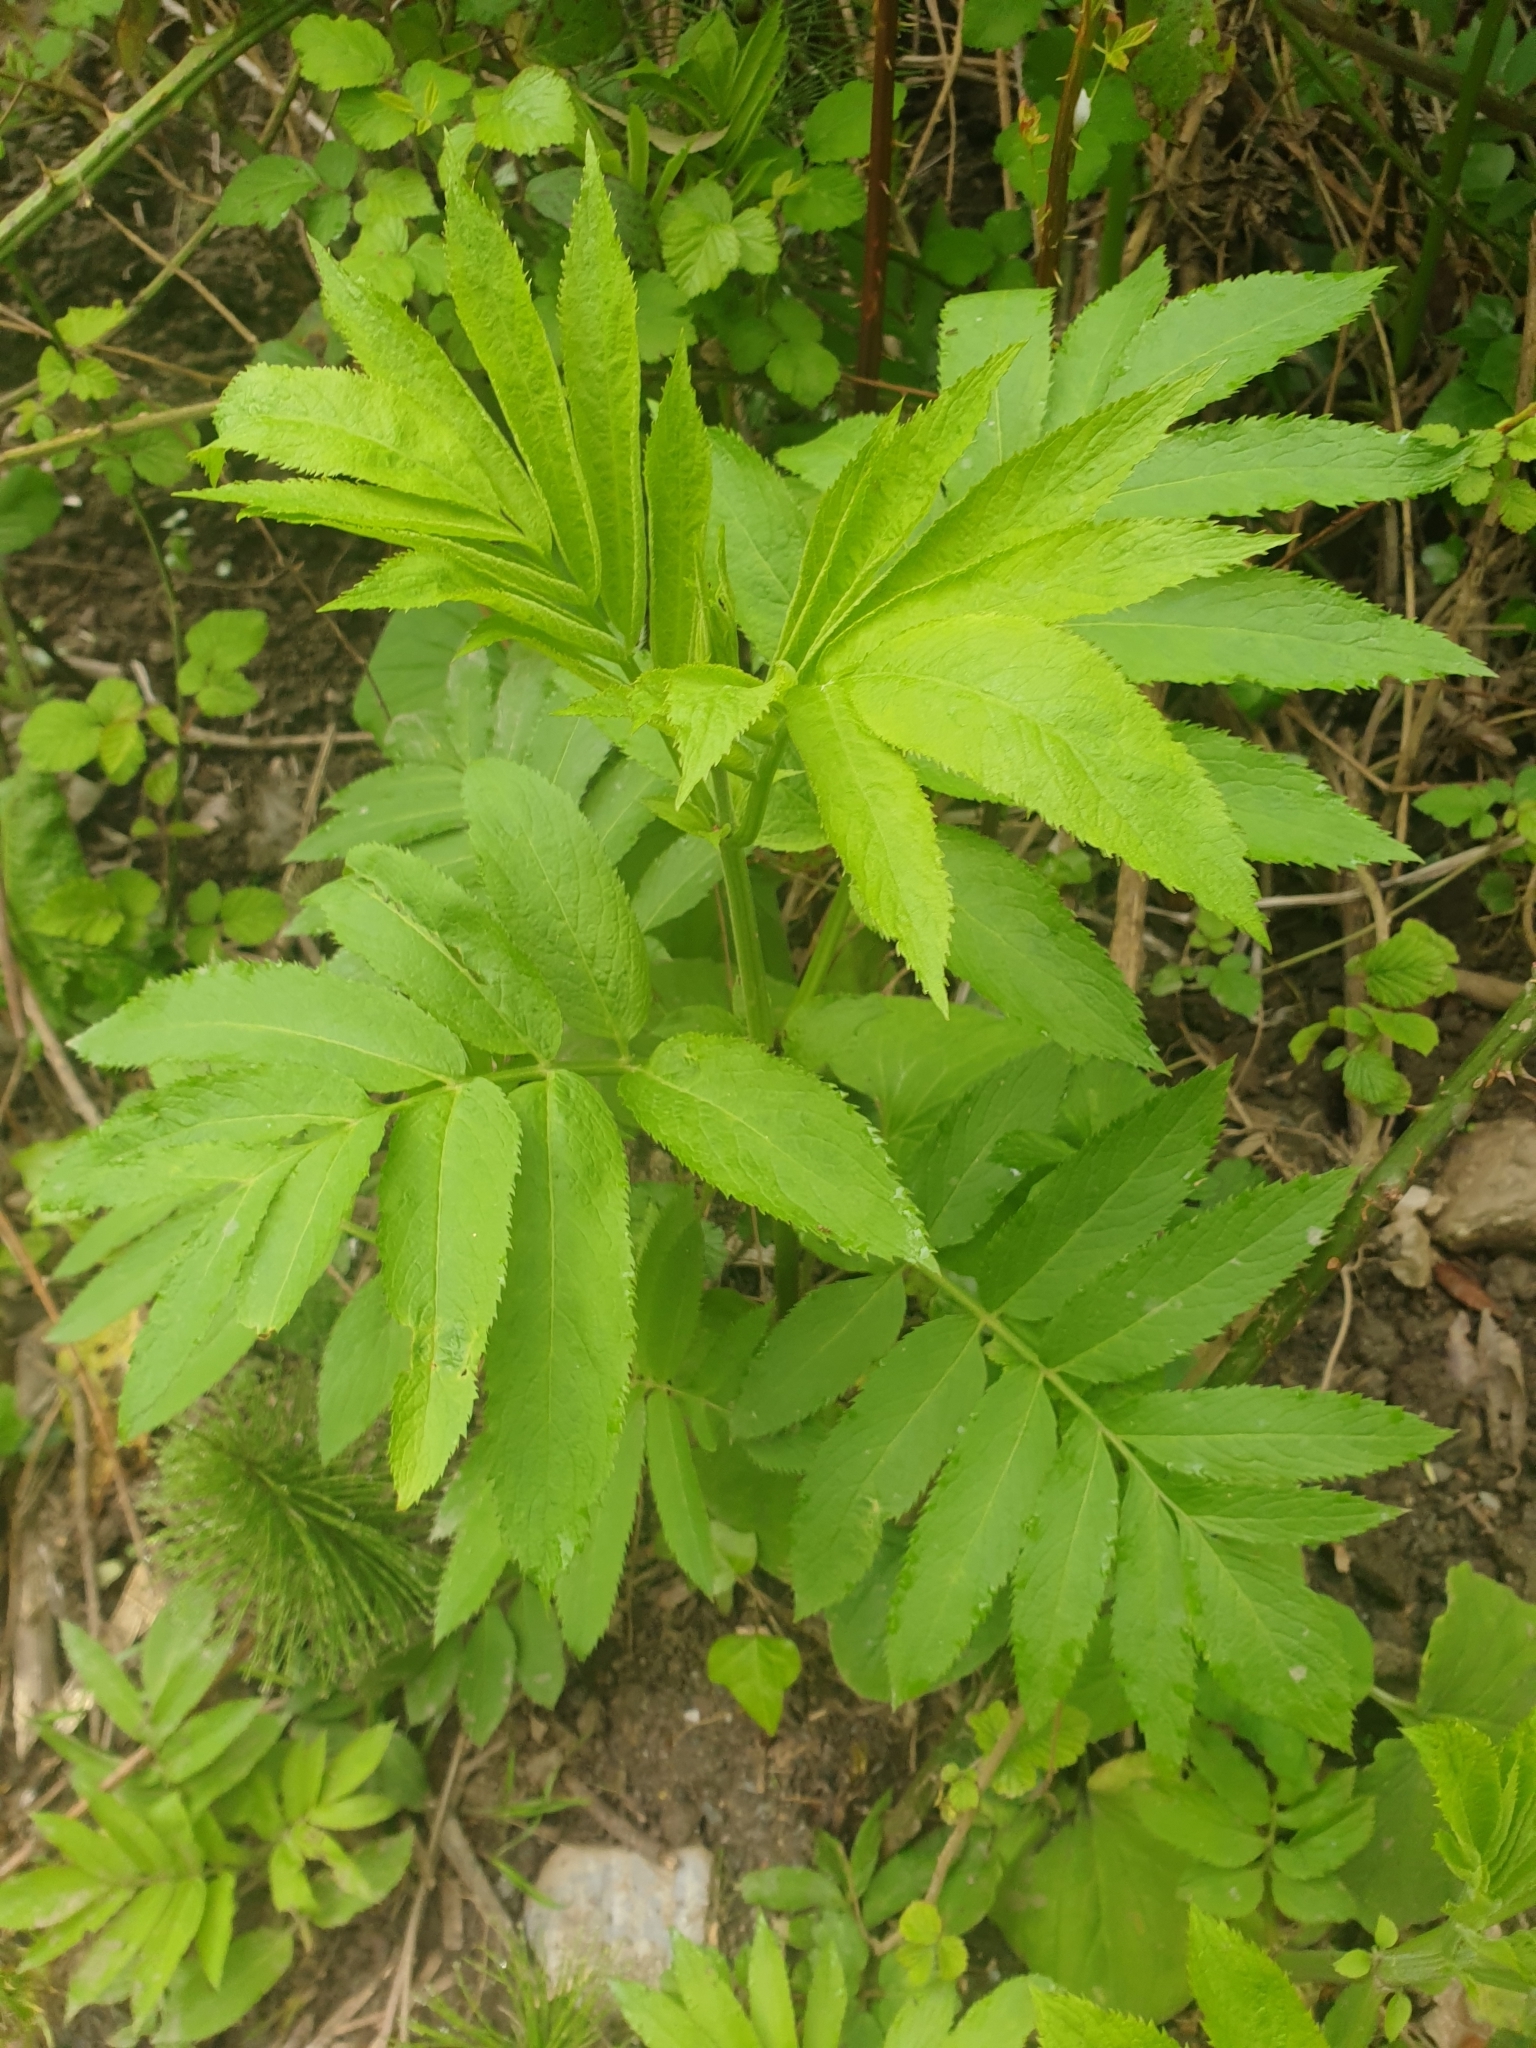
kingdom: Plantae
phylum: Tracheophyta
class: Magnoliopsida
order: Dipsacales
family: Viburnaceae
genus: Sambucus
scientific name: Sambucus ebulus
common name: Dwarf elder
